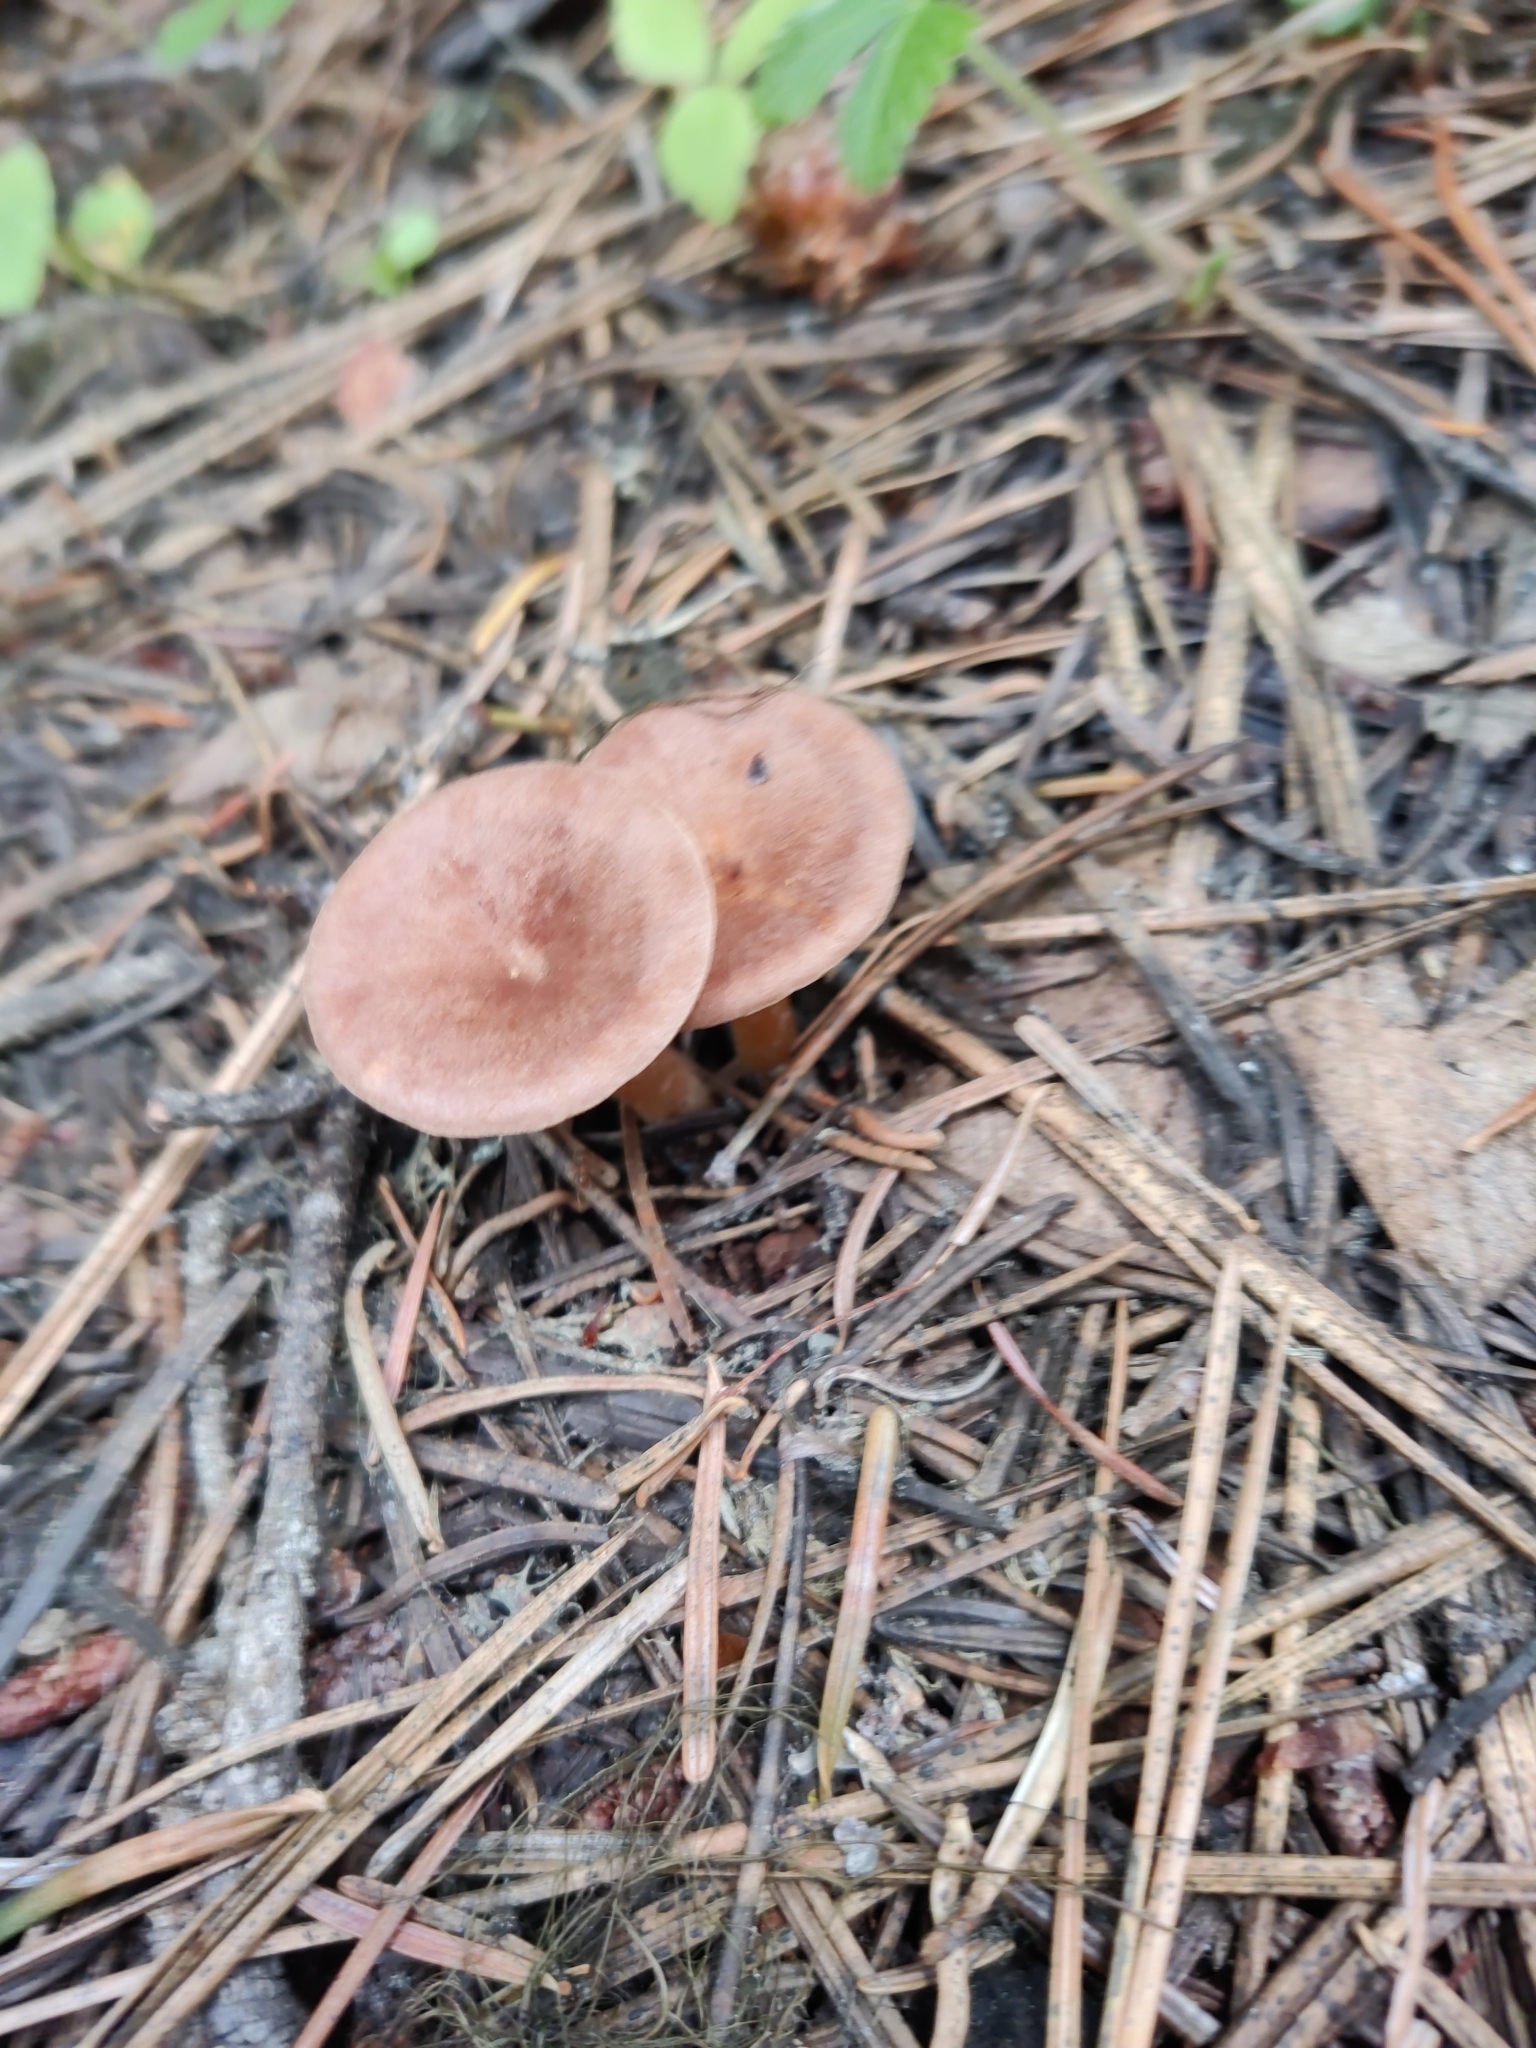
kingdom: Fungi
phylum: Basidiomycota
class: Agaricomycetes
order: Agaricales
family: Tricholomataceae
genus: Infundibulicybe
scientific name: Infundibulicybe squamulosa
